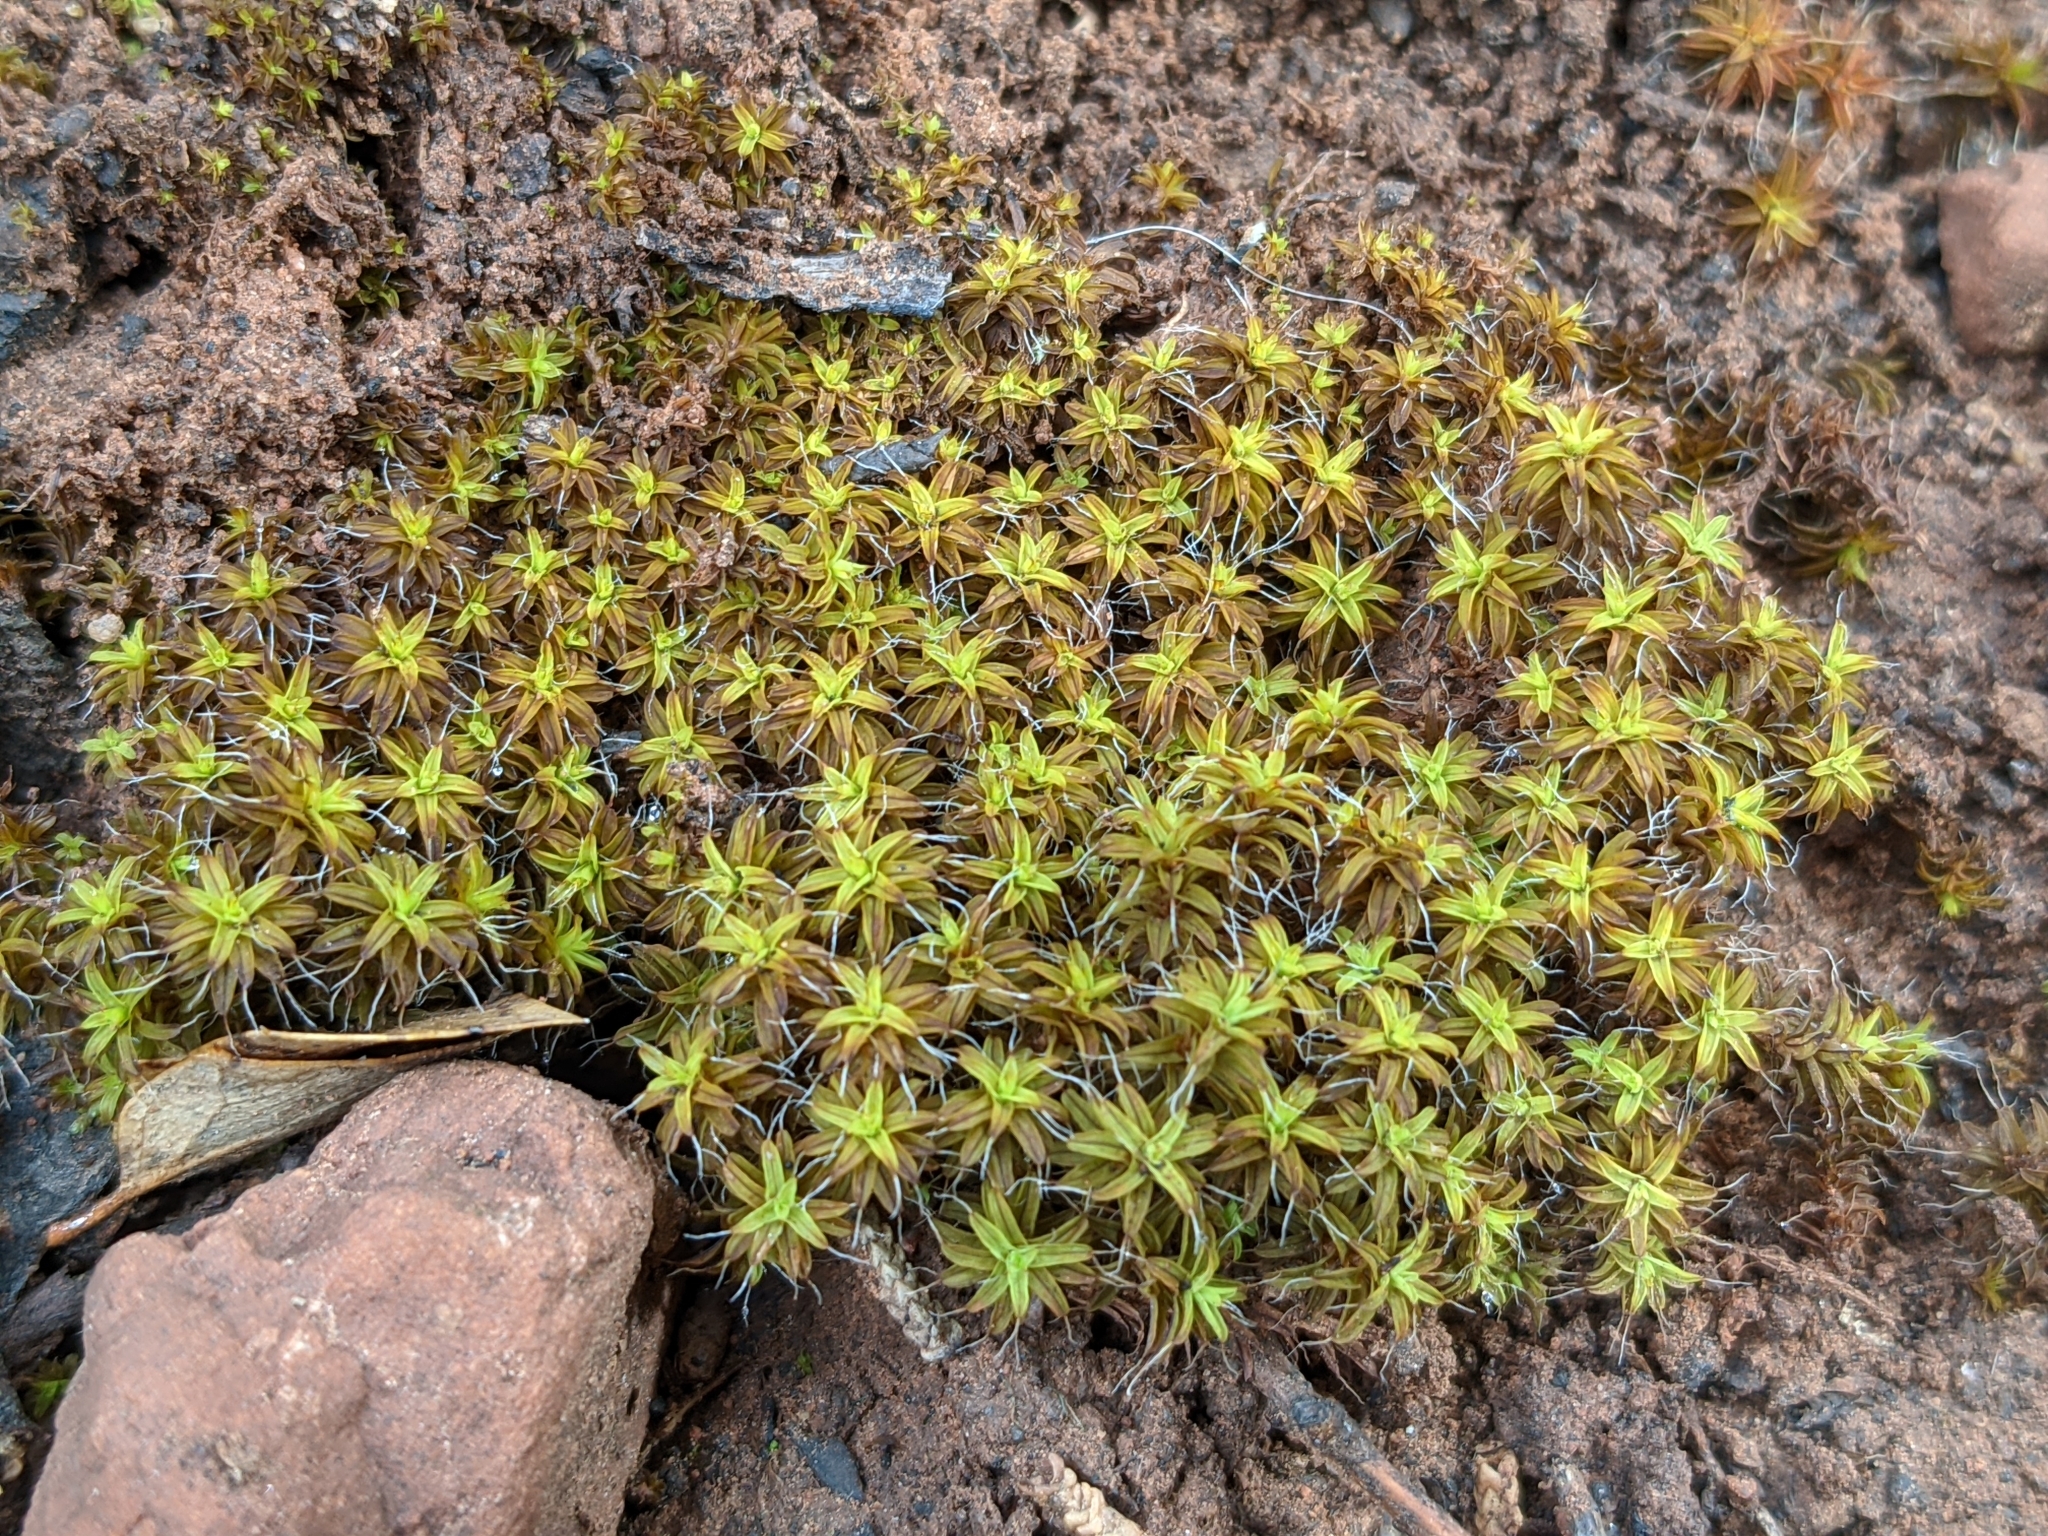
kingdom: Plantae
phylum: Bryophyta
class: Bryopsida
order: Pottiales
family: Pottiaceae
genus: Syntrichia
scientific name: Syntrichia ruralis
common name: Sidewalk screw moss
